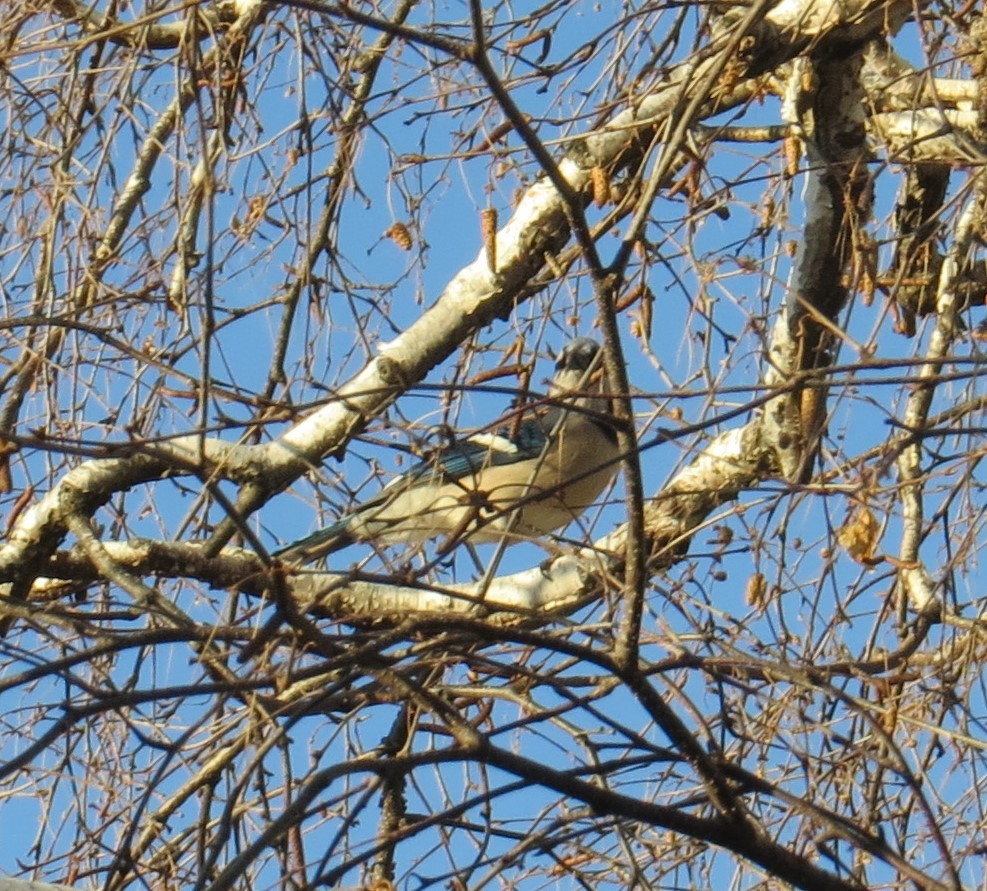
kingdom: Animalia
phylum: Chordata
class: Aves
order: Passeriformes
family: Corvidae
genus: Cyanocitta
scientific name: Cyanocitta cristata
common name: Blue jay
